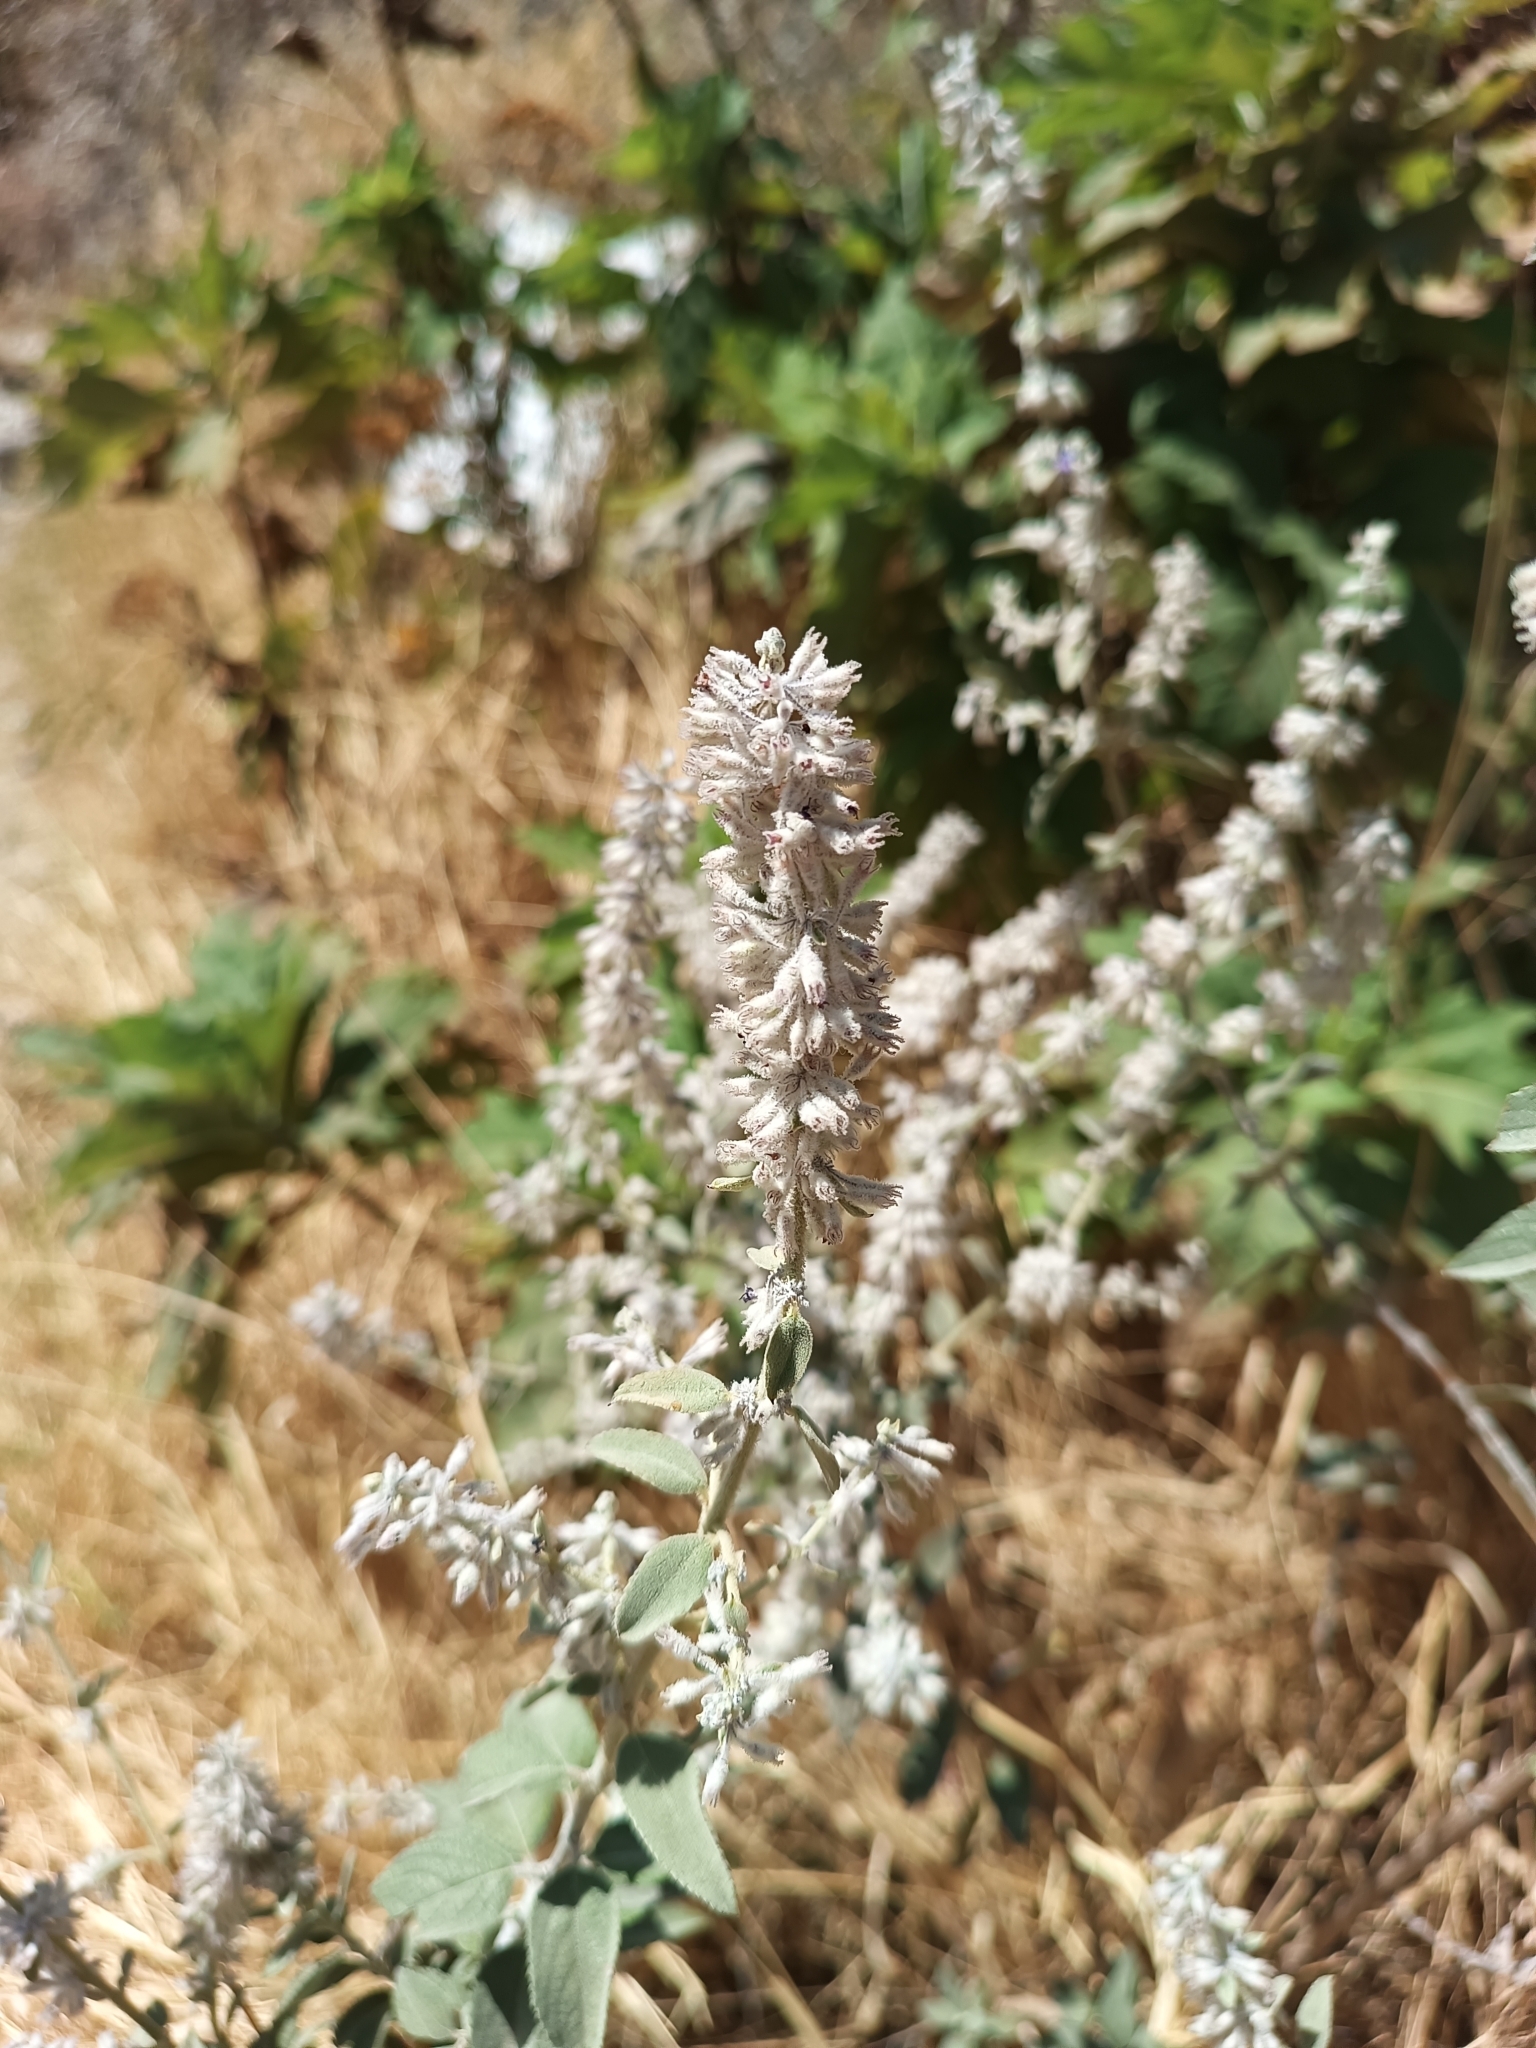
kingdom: Plantae
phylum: Tracheophyta
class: Magnoliopsida
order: Lamiales
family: Lamiaceae
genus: Condea
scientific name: Condea albida
